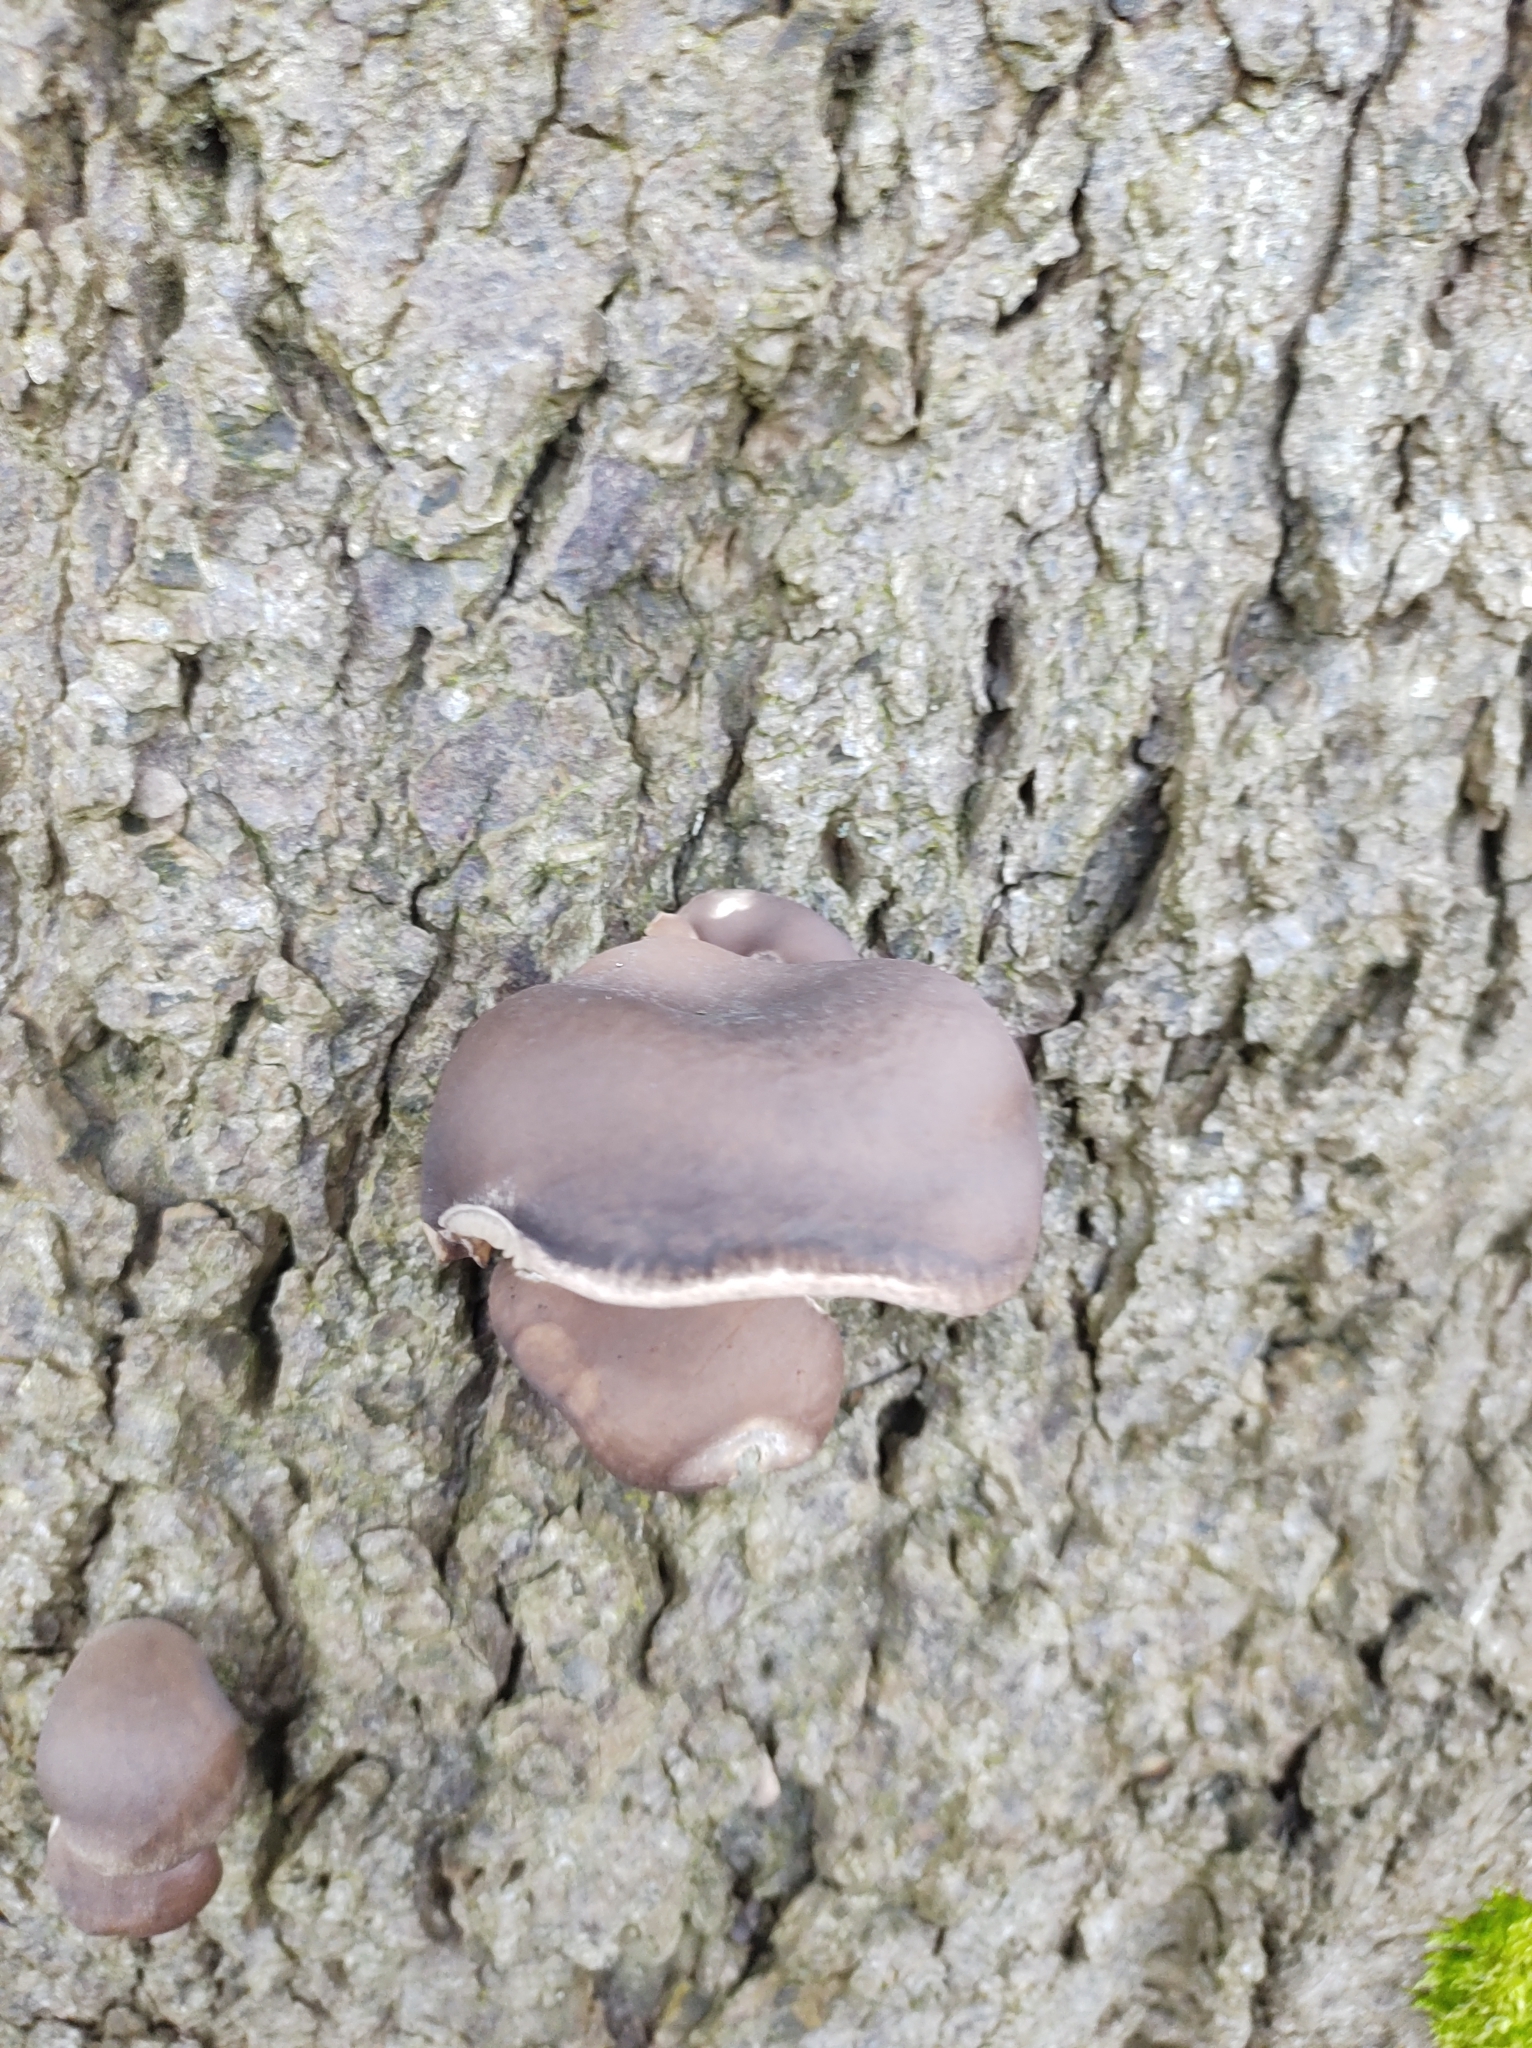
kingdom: Fungi
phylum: Basidiomycota
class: Agaricomycetes
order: Agaricales
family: Pleurotaceae
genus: Pleurotus
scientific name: Pleurotus ostreatus
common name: Oyster mushroom
